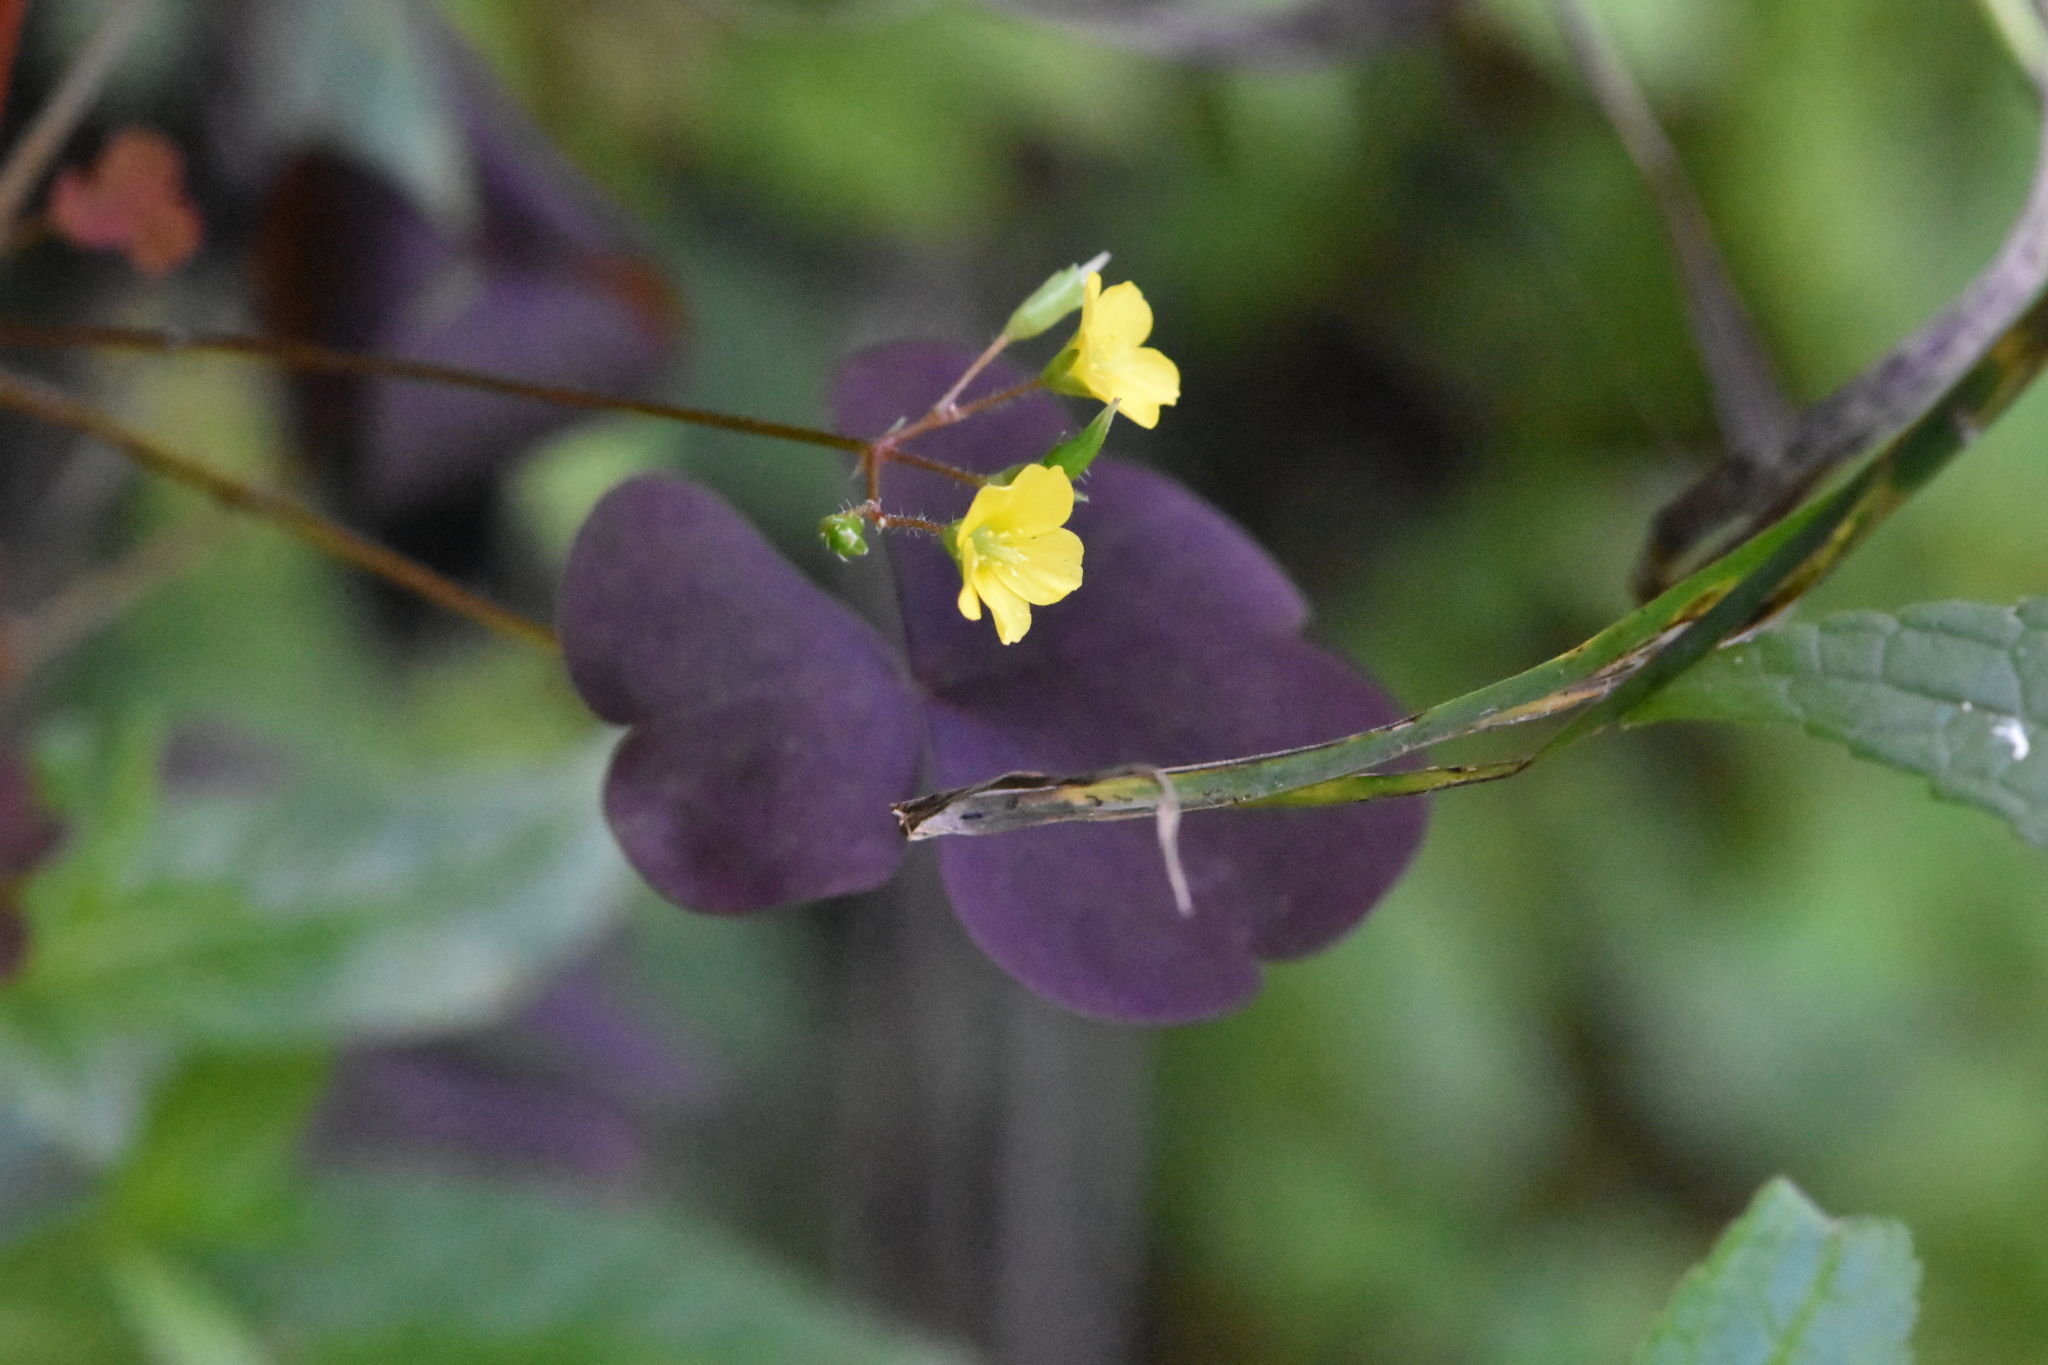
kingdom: Plantae
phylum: Tracheophyta
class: Magnoliopsida
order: Oxalidales
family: Oxalidaceae
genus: Oxalis
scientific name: Oxalis stricta
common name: Upright yellow-sorrel
